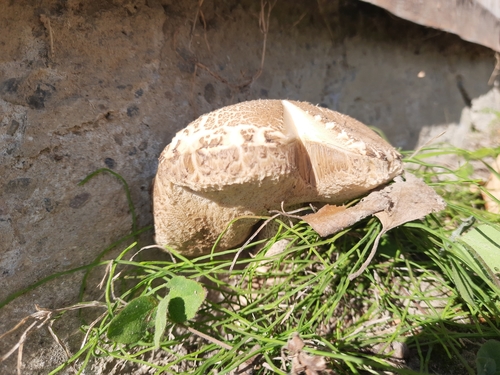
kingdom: Fungi
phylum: Basidiomycota
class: Agaricomycetes
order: Boletales
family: Boletaceae
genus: Leccinum
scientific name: Leccinum scabrum
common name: Blushing bolete
